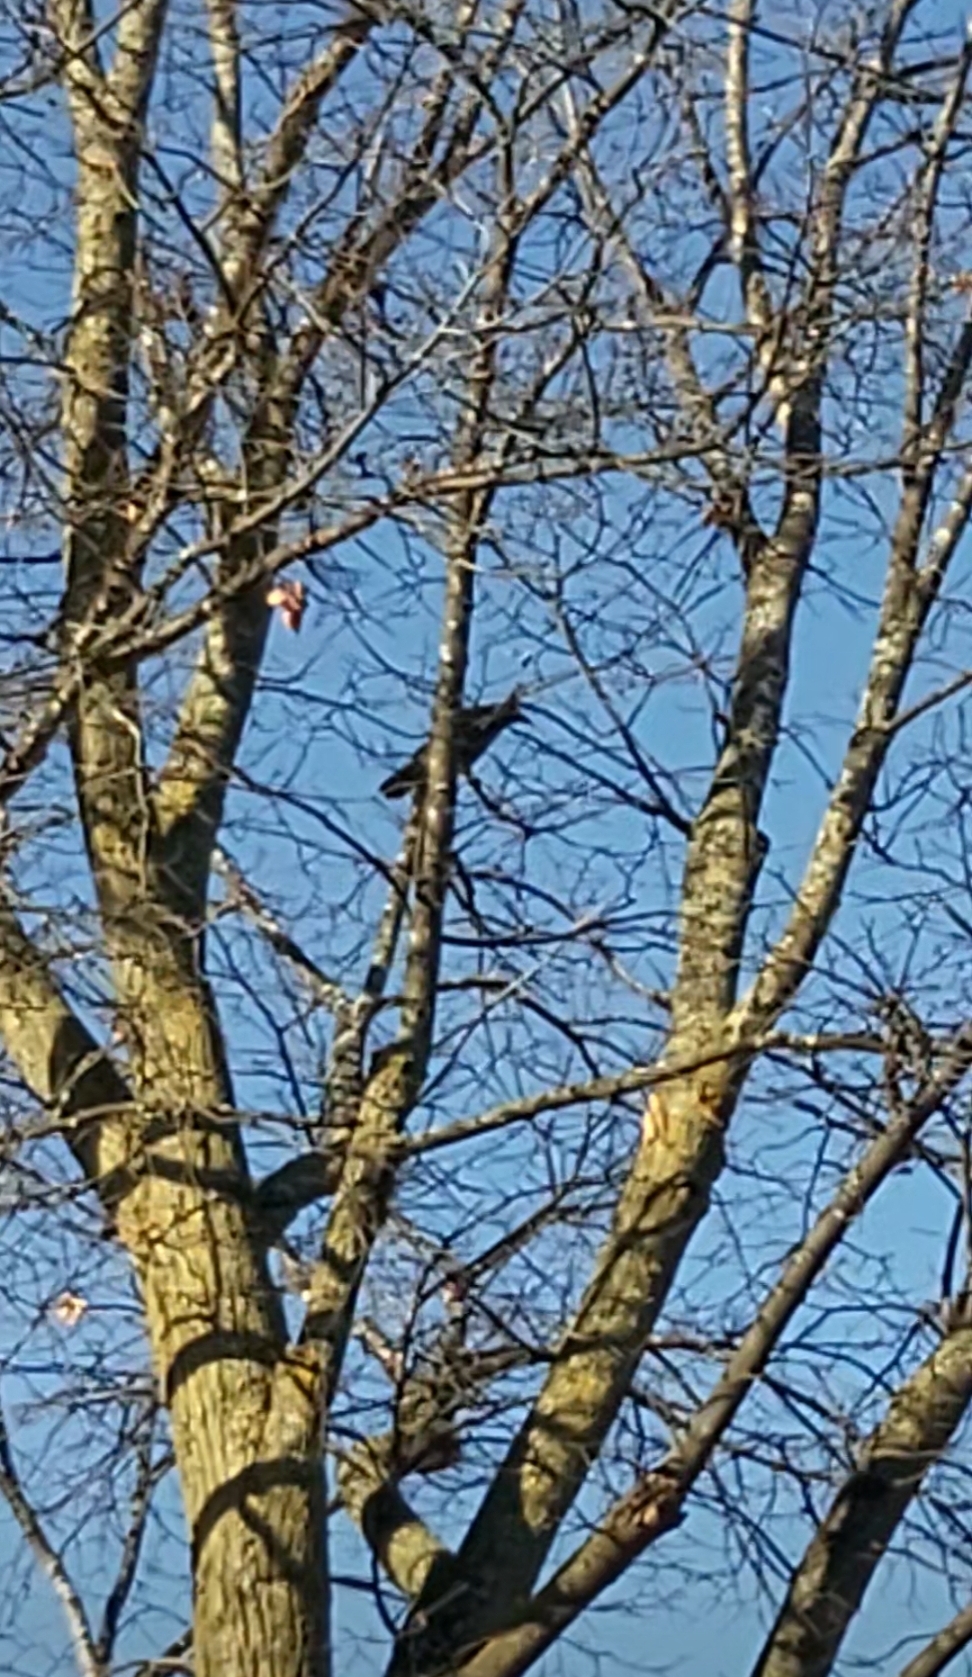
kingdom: Animalia
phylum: Chordata
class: Aves
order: Passeriformes
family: Corvidae
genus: Corvus
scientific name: Corvus brachyrhynchos
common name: American crow
